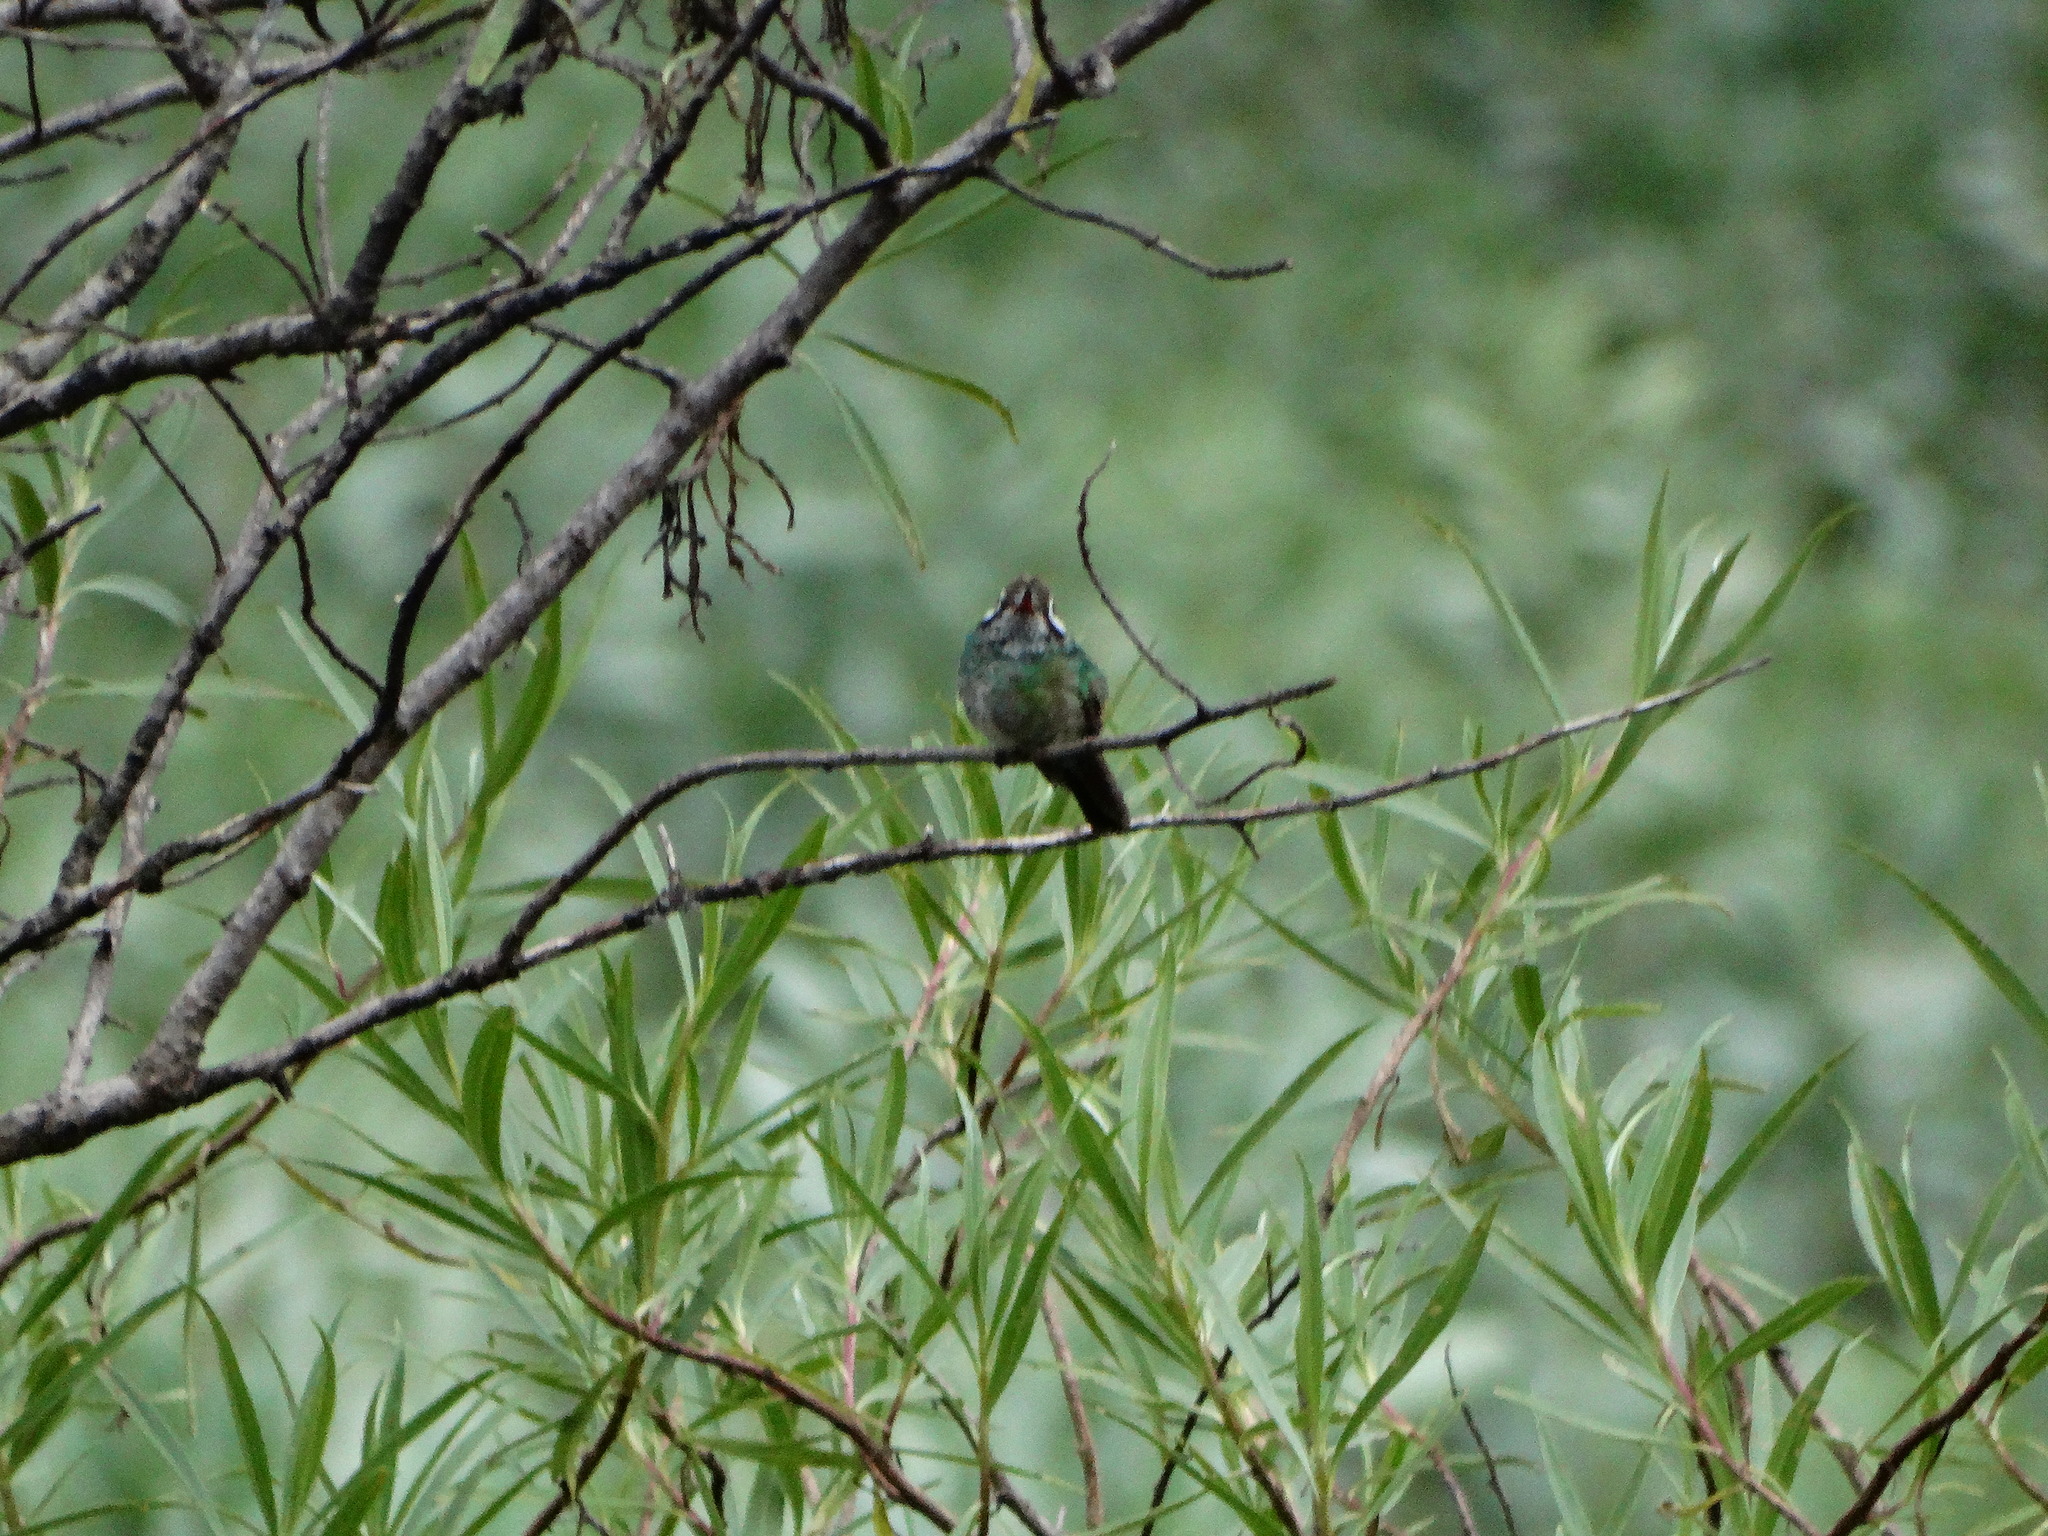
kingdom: Animalia
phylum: Chordata
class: Aves
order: Apodiformes
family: Trochilidae
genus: Basilinna
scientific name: Basilinna leucotis
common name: White-eared hummingbird
